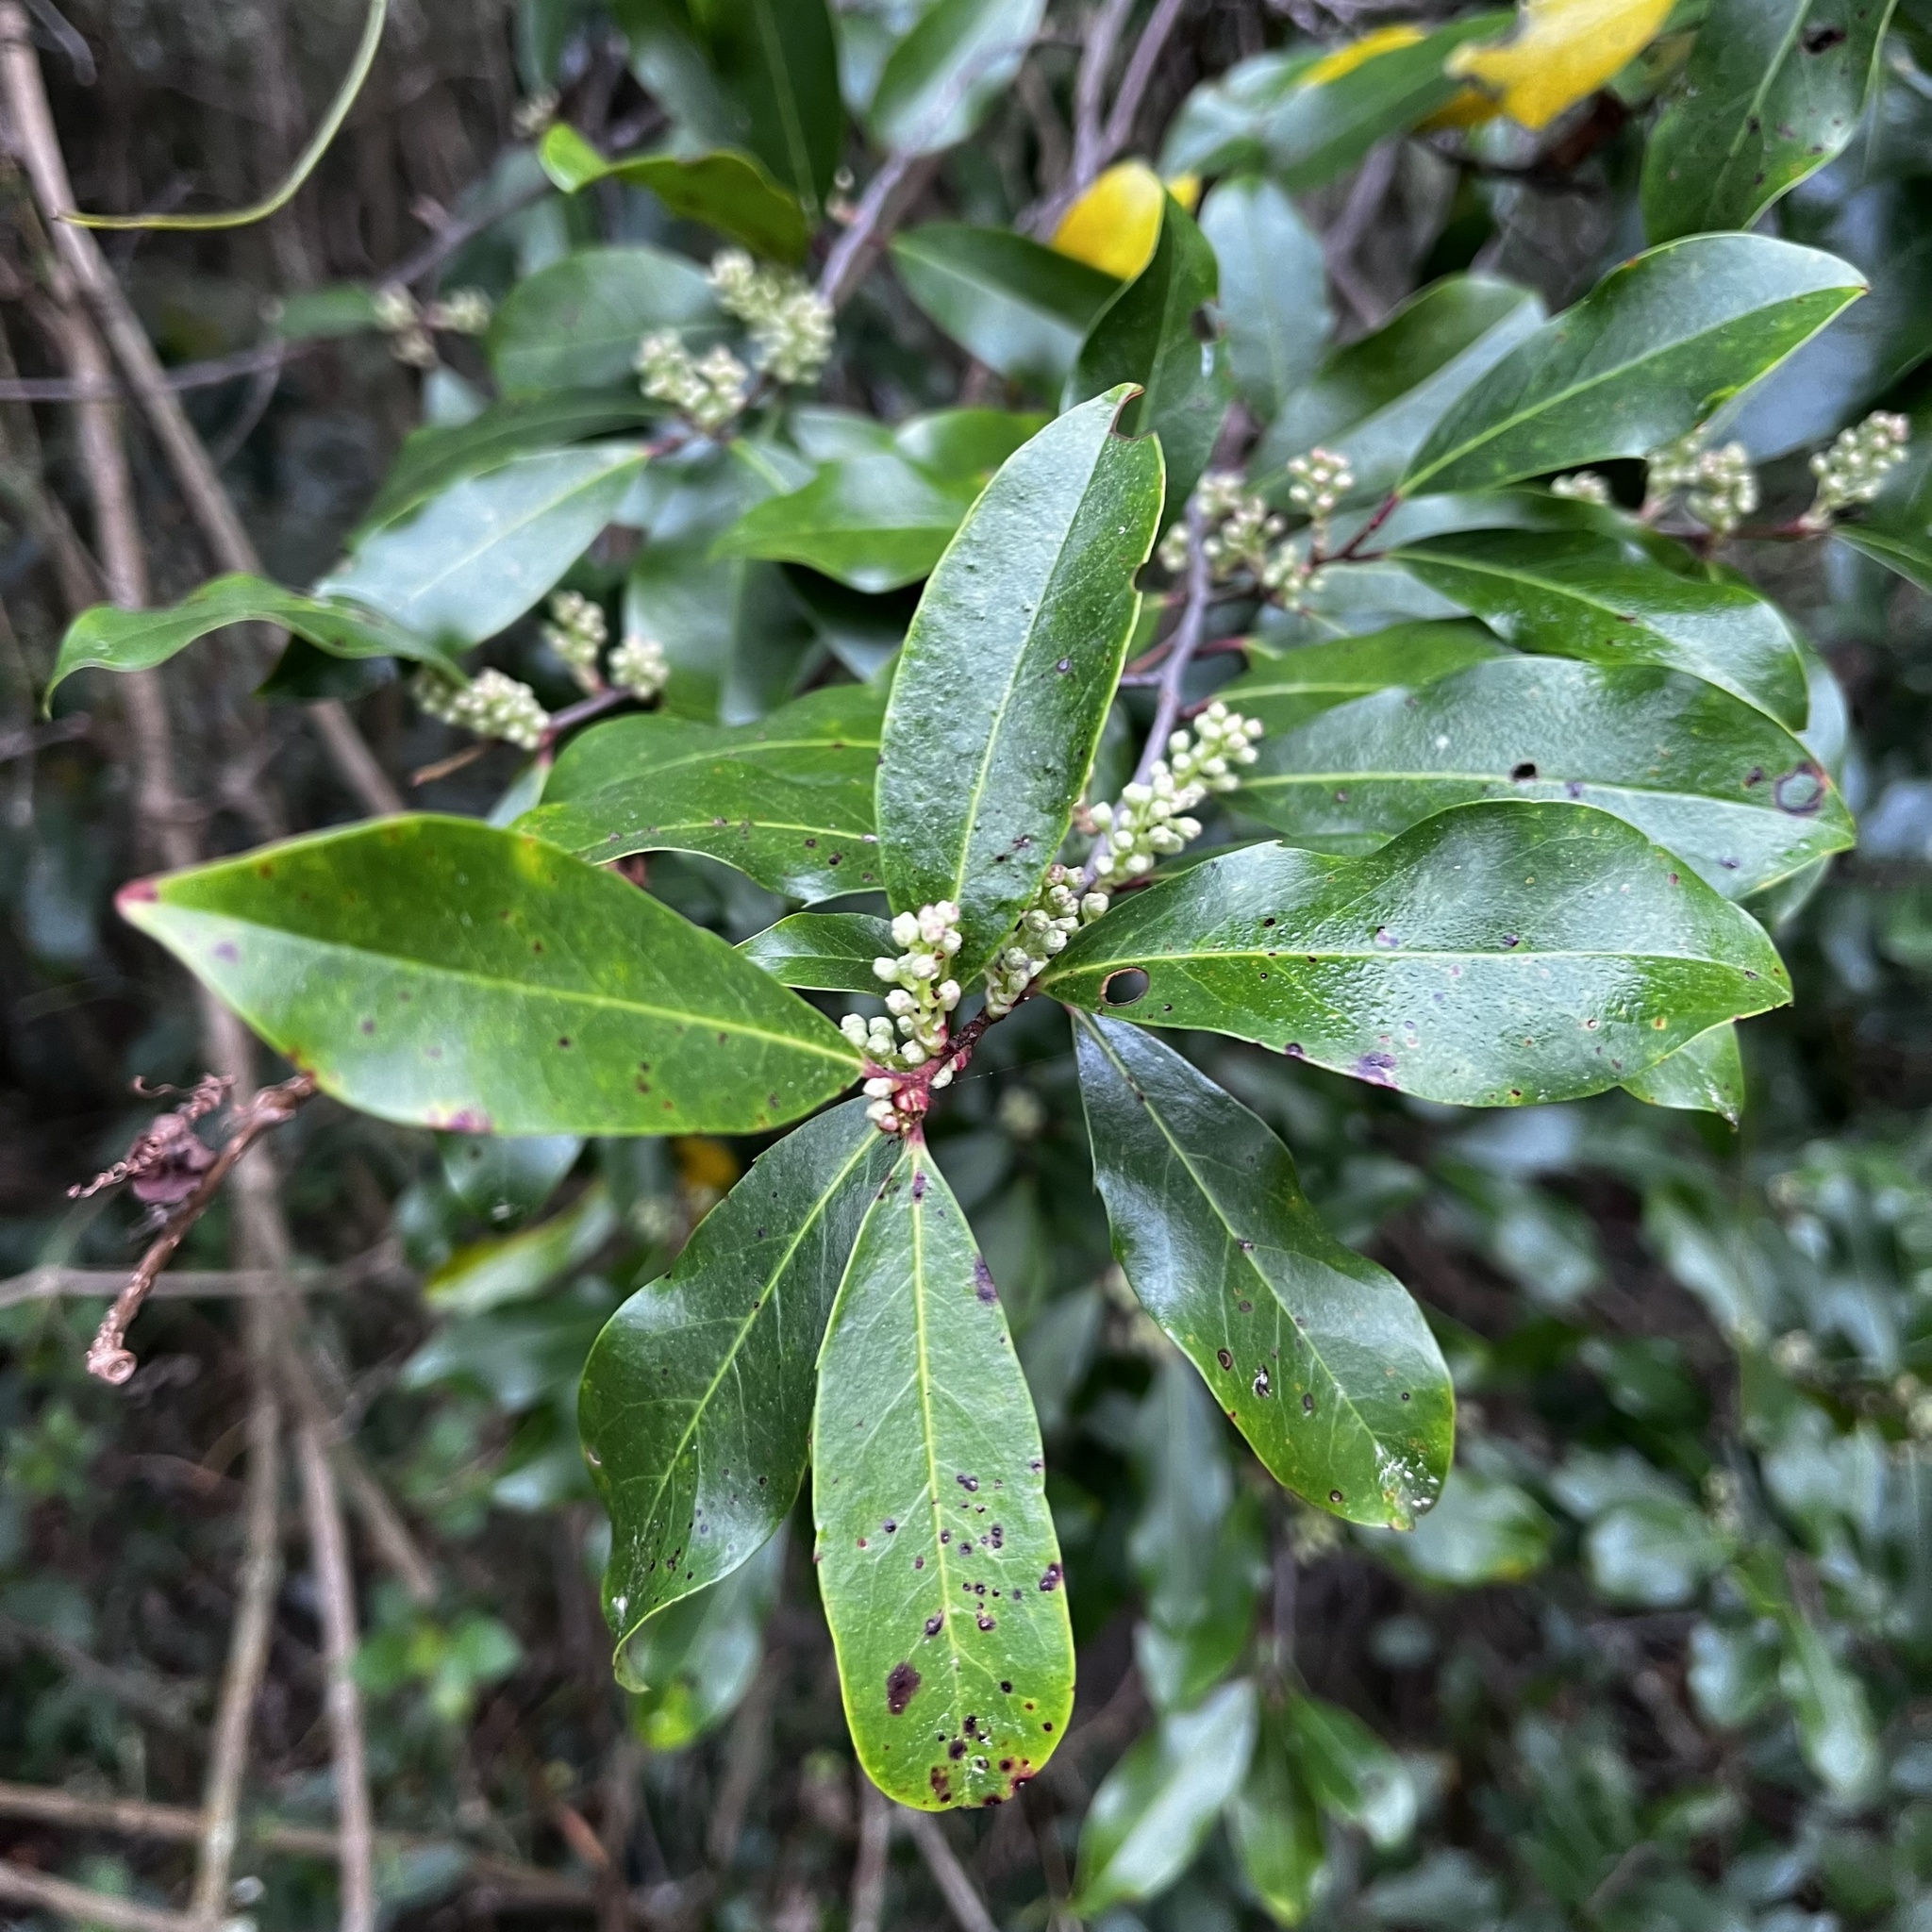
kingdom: Plantae
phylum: Tracheophyta
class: Magnoliopsida
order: Rosales
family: Rosaceae
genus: Prunus
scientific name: Prunus caroliniana
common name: Carolina laurel cherry
